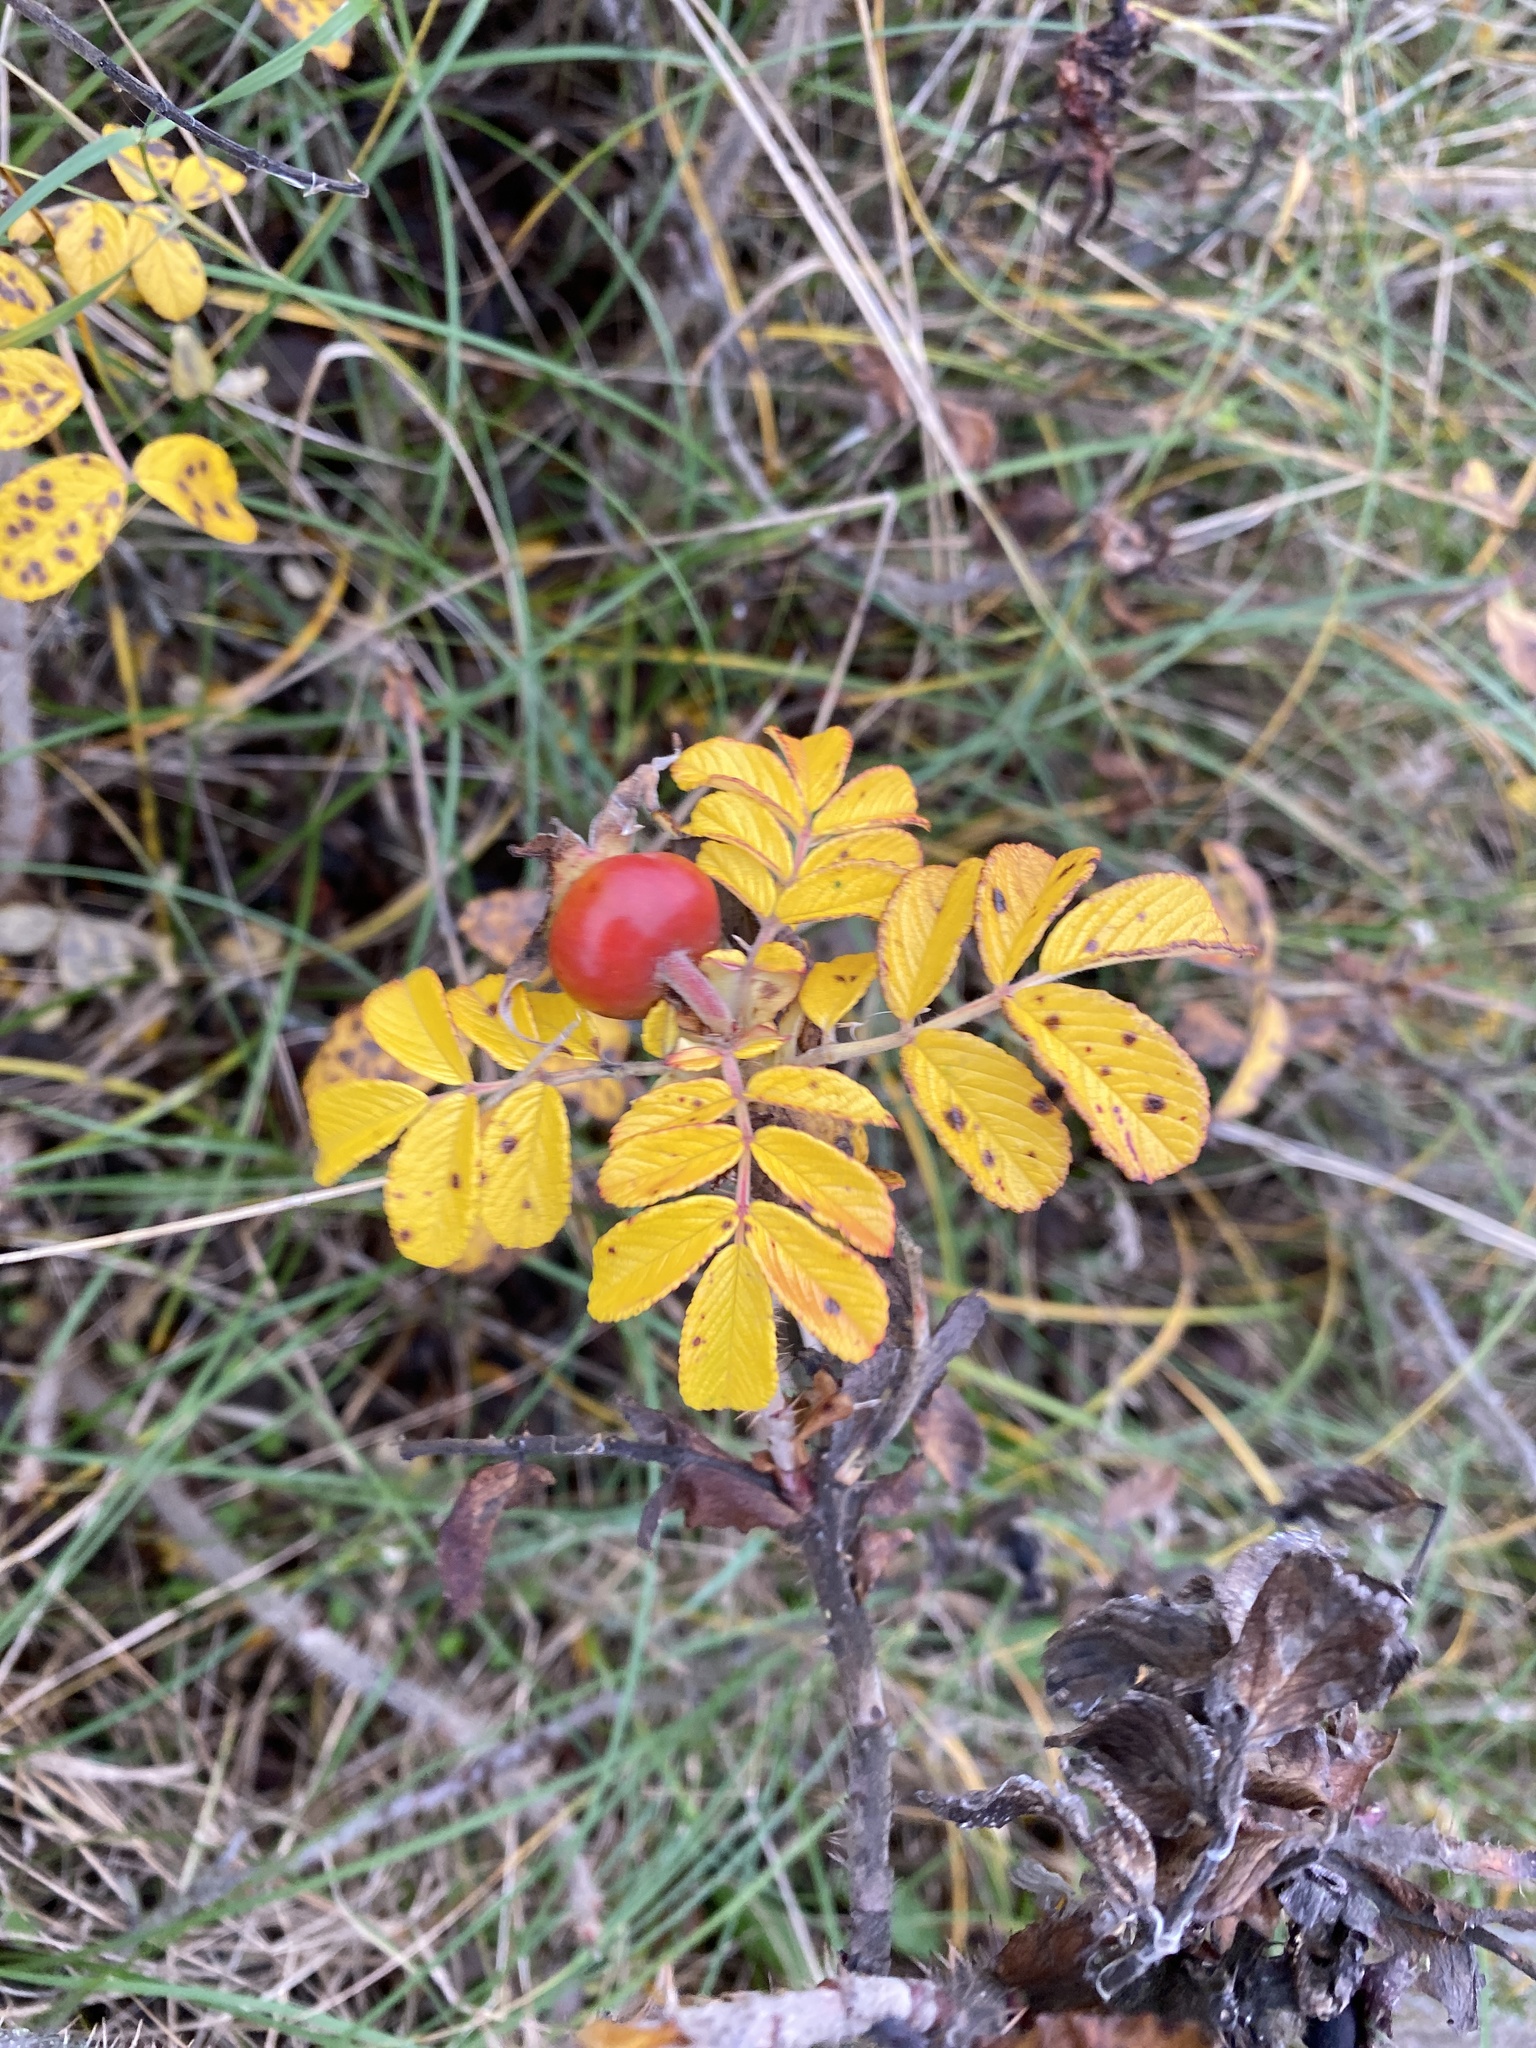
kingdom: Plantae
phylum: Tracheophyta
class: Magnoliopsida
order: Rosales
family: Rosaceae
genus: Rosa
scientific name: Rosa rugosa
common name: Japanese rose
